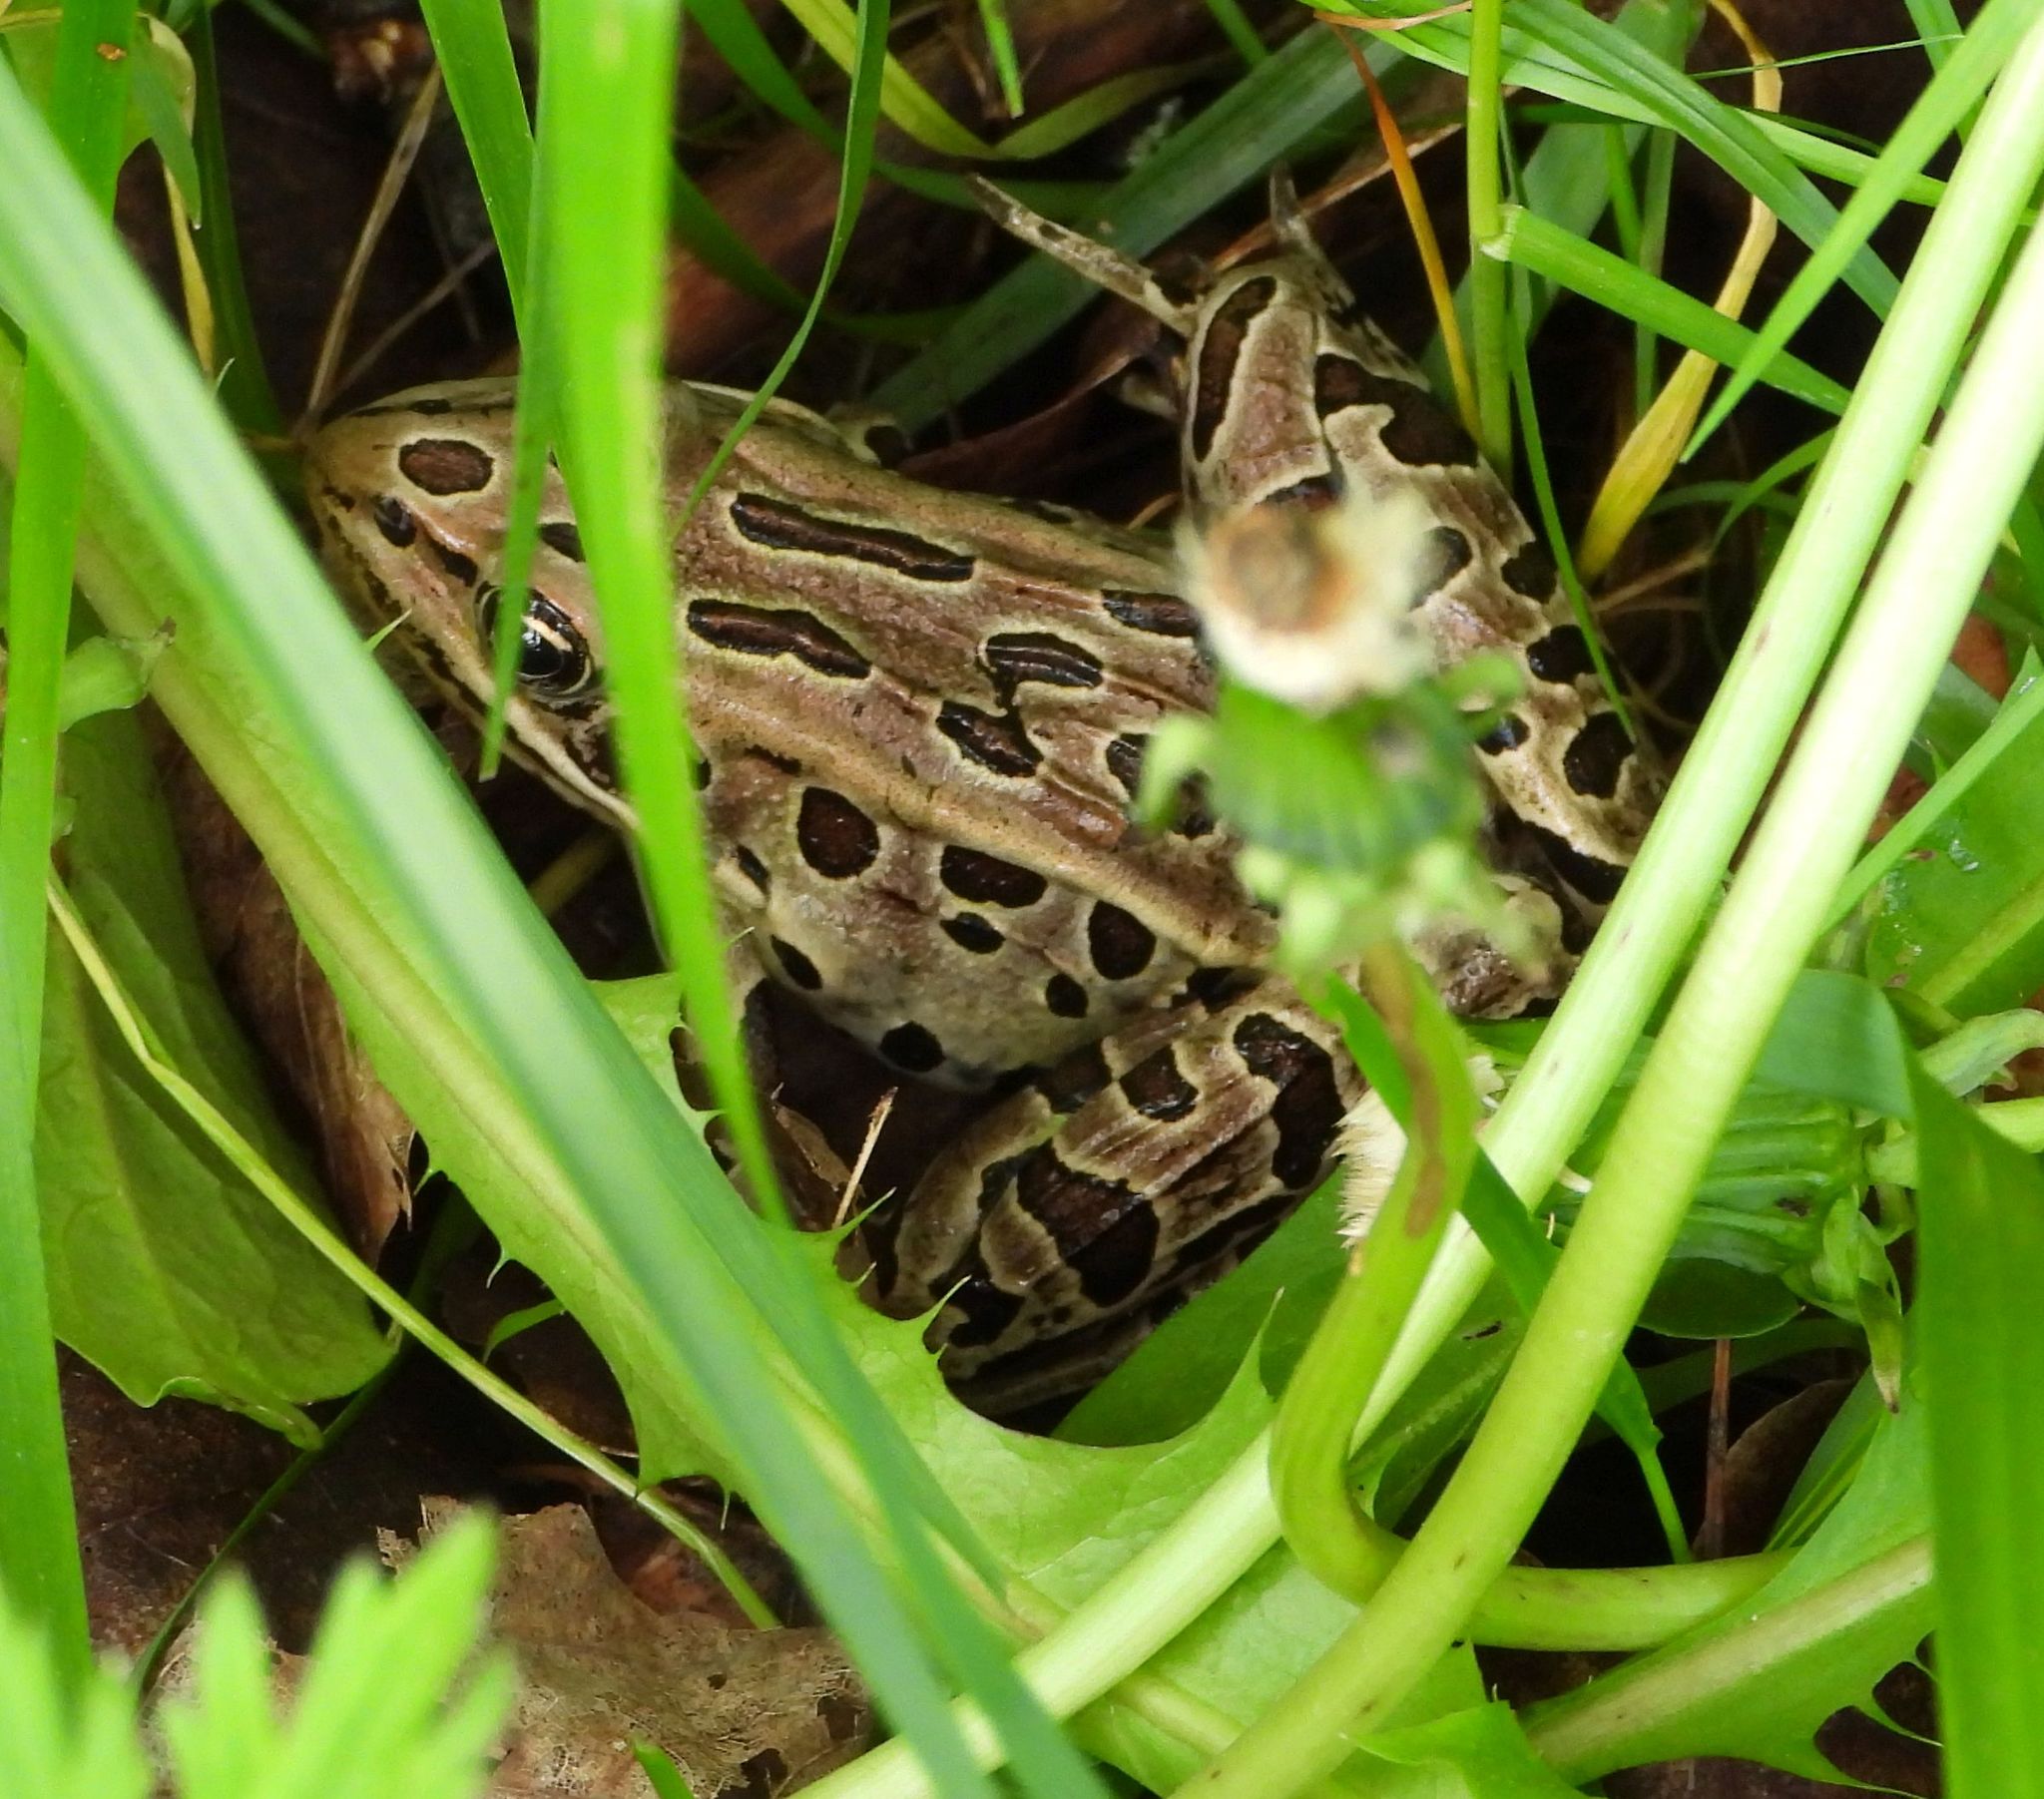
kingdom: Animalia
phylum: Chordata
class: Amphibia
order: Anura
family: Ranidae
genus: Lithobates
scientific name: Lithobates pipiens
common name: Northern leopard frog
